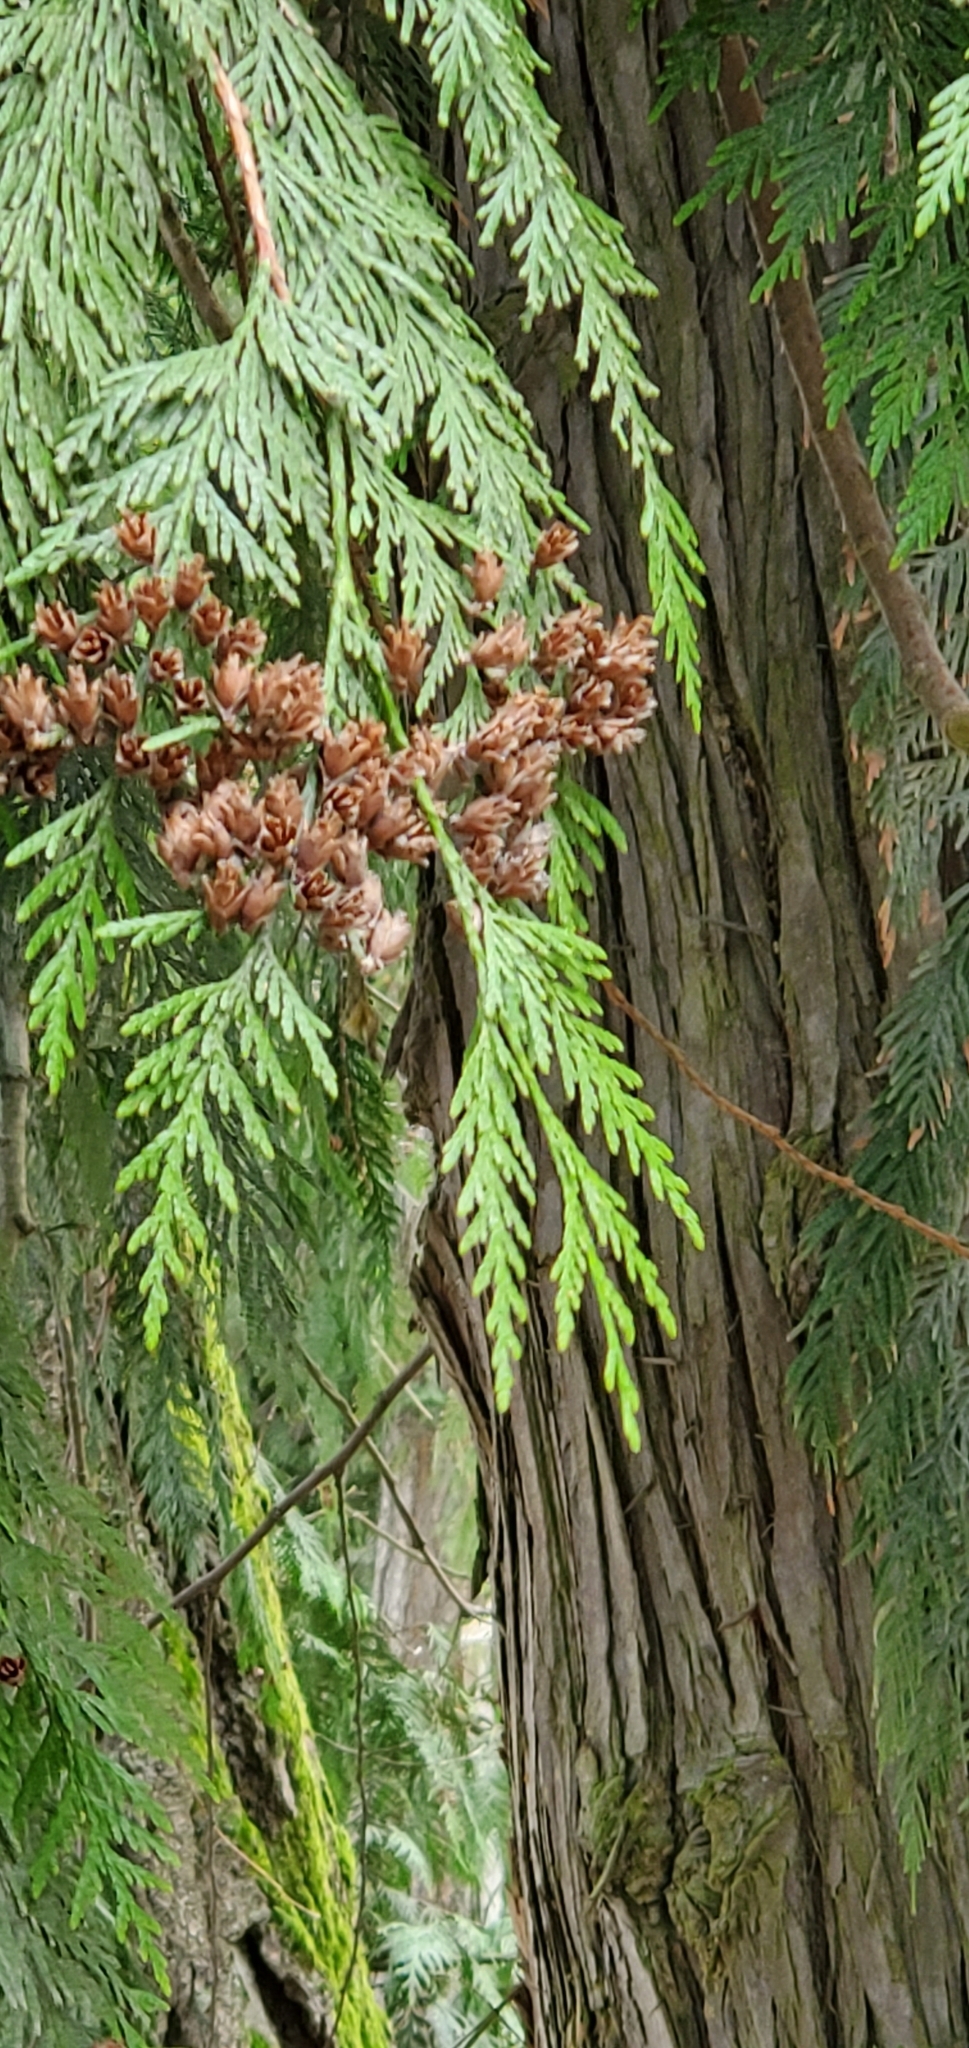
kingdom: Plantae
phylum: Tracheophyta
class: Pinopsida
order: Pinales
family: Cupressaceae
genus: Thuja
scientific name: Thuja plicata
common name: Western red-cedar
